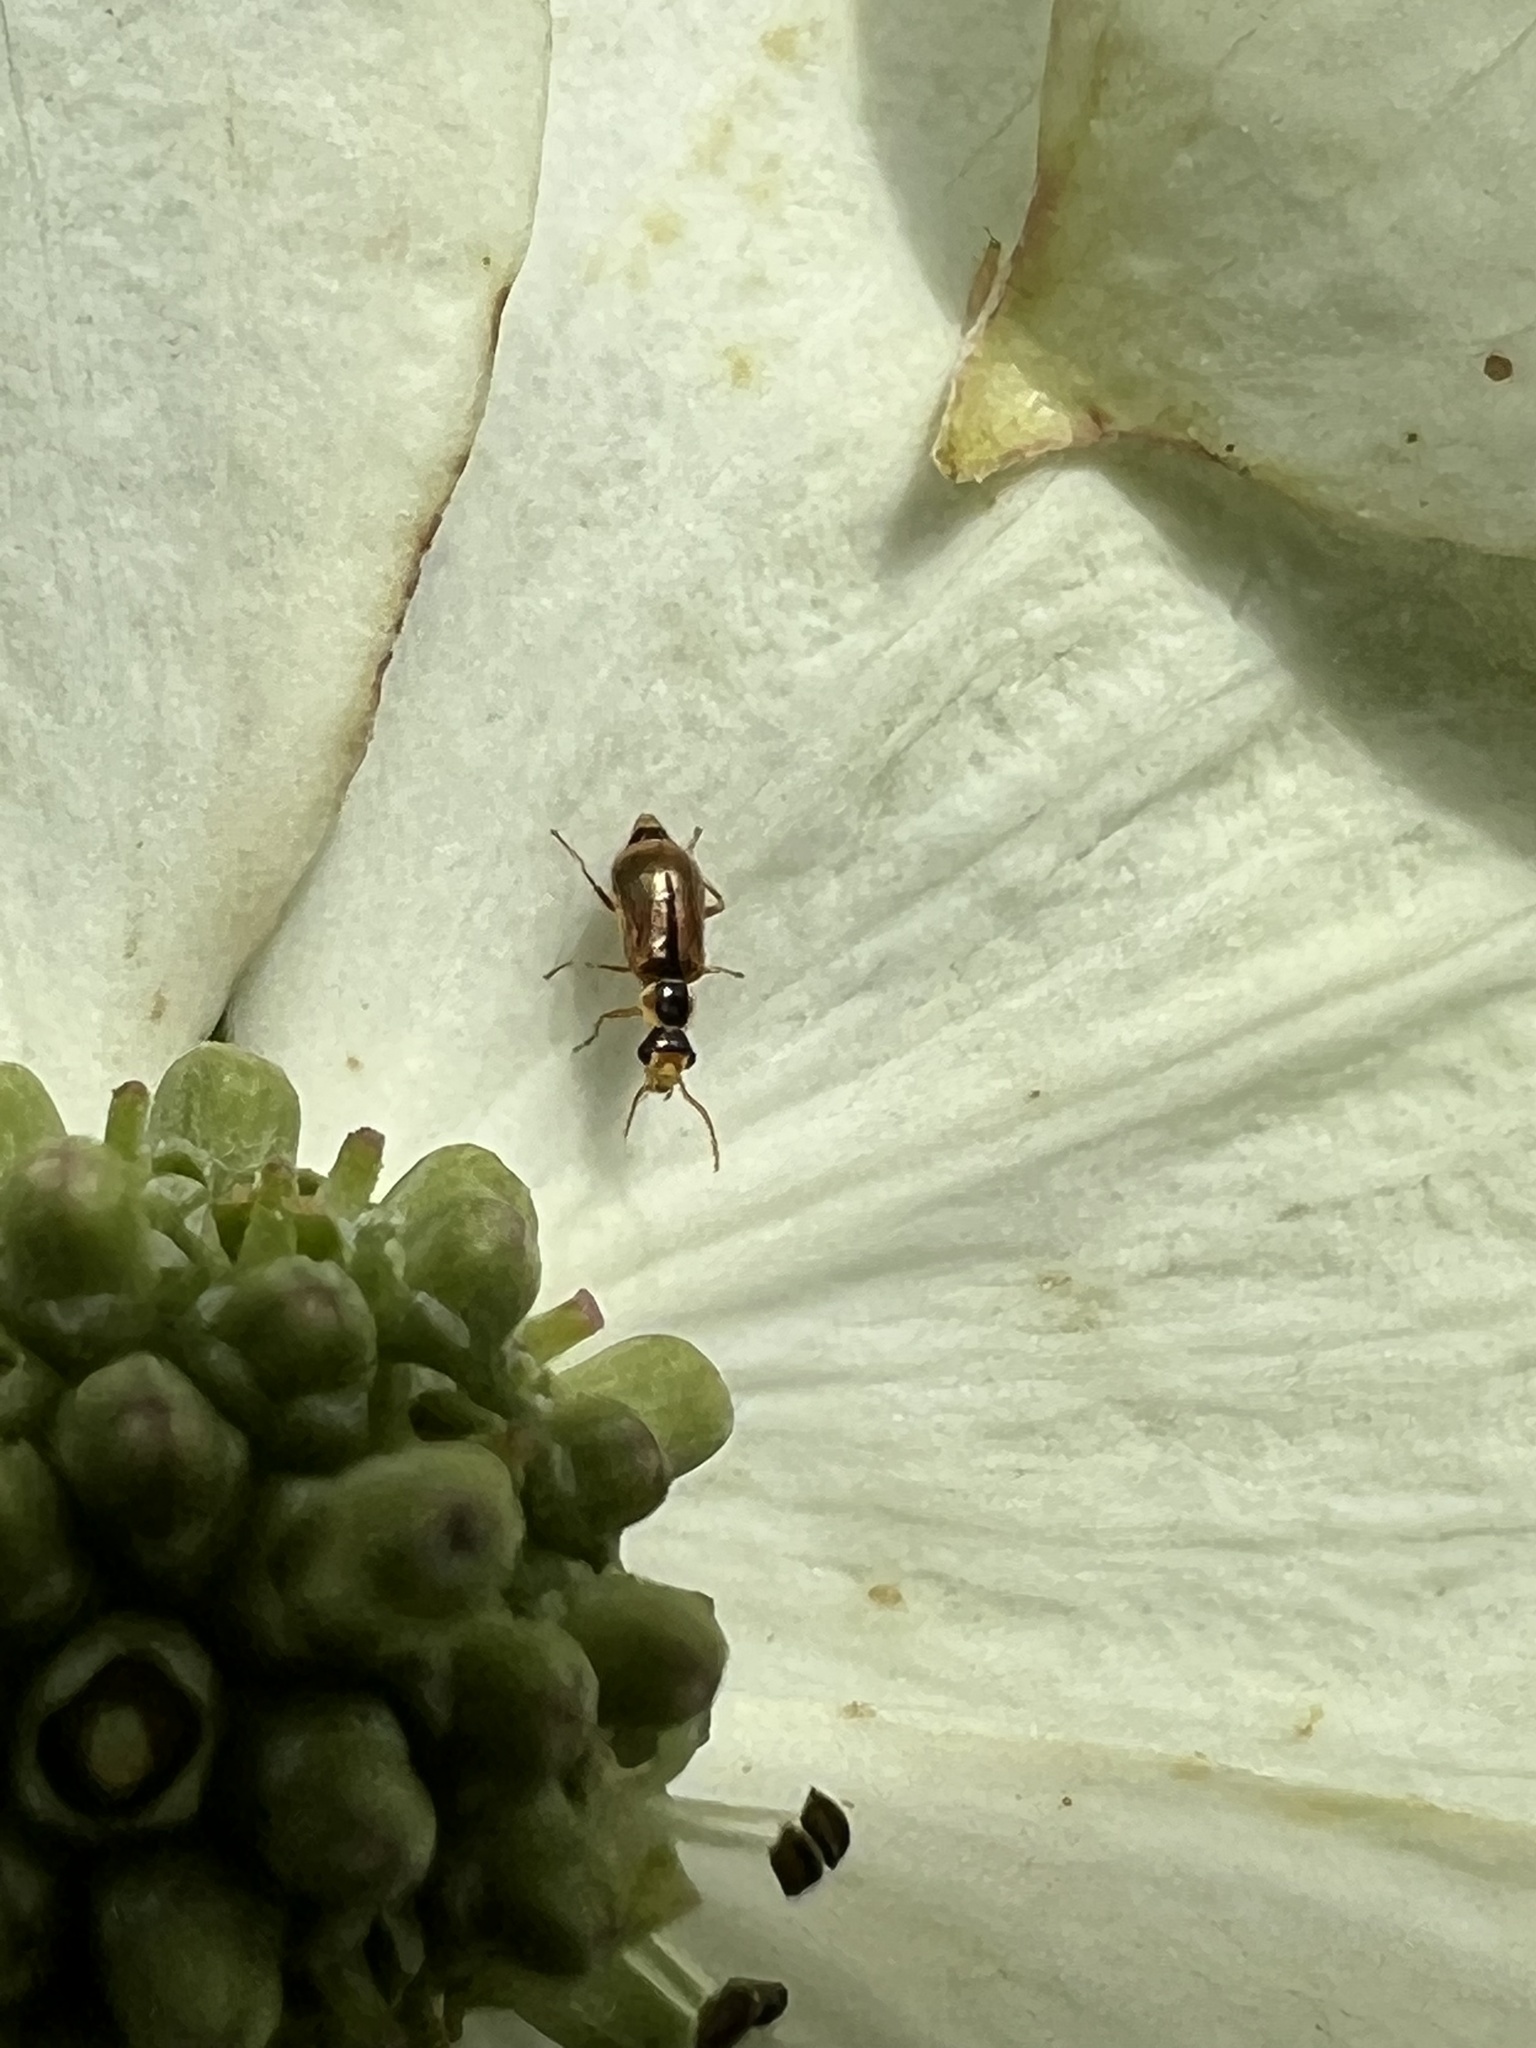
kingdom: Animalia
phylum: Arthropoda
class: Insecta
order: Coleoptera
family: Malachiidae
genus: Attalus
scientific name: Attalus
